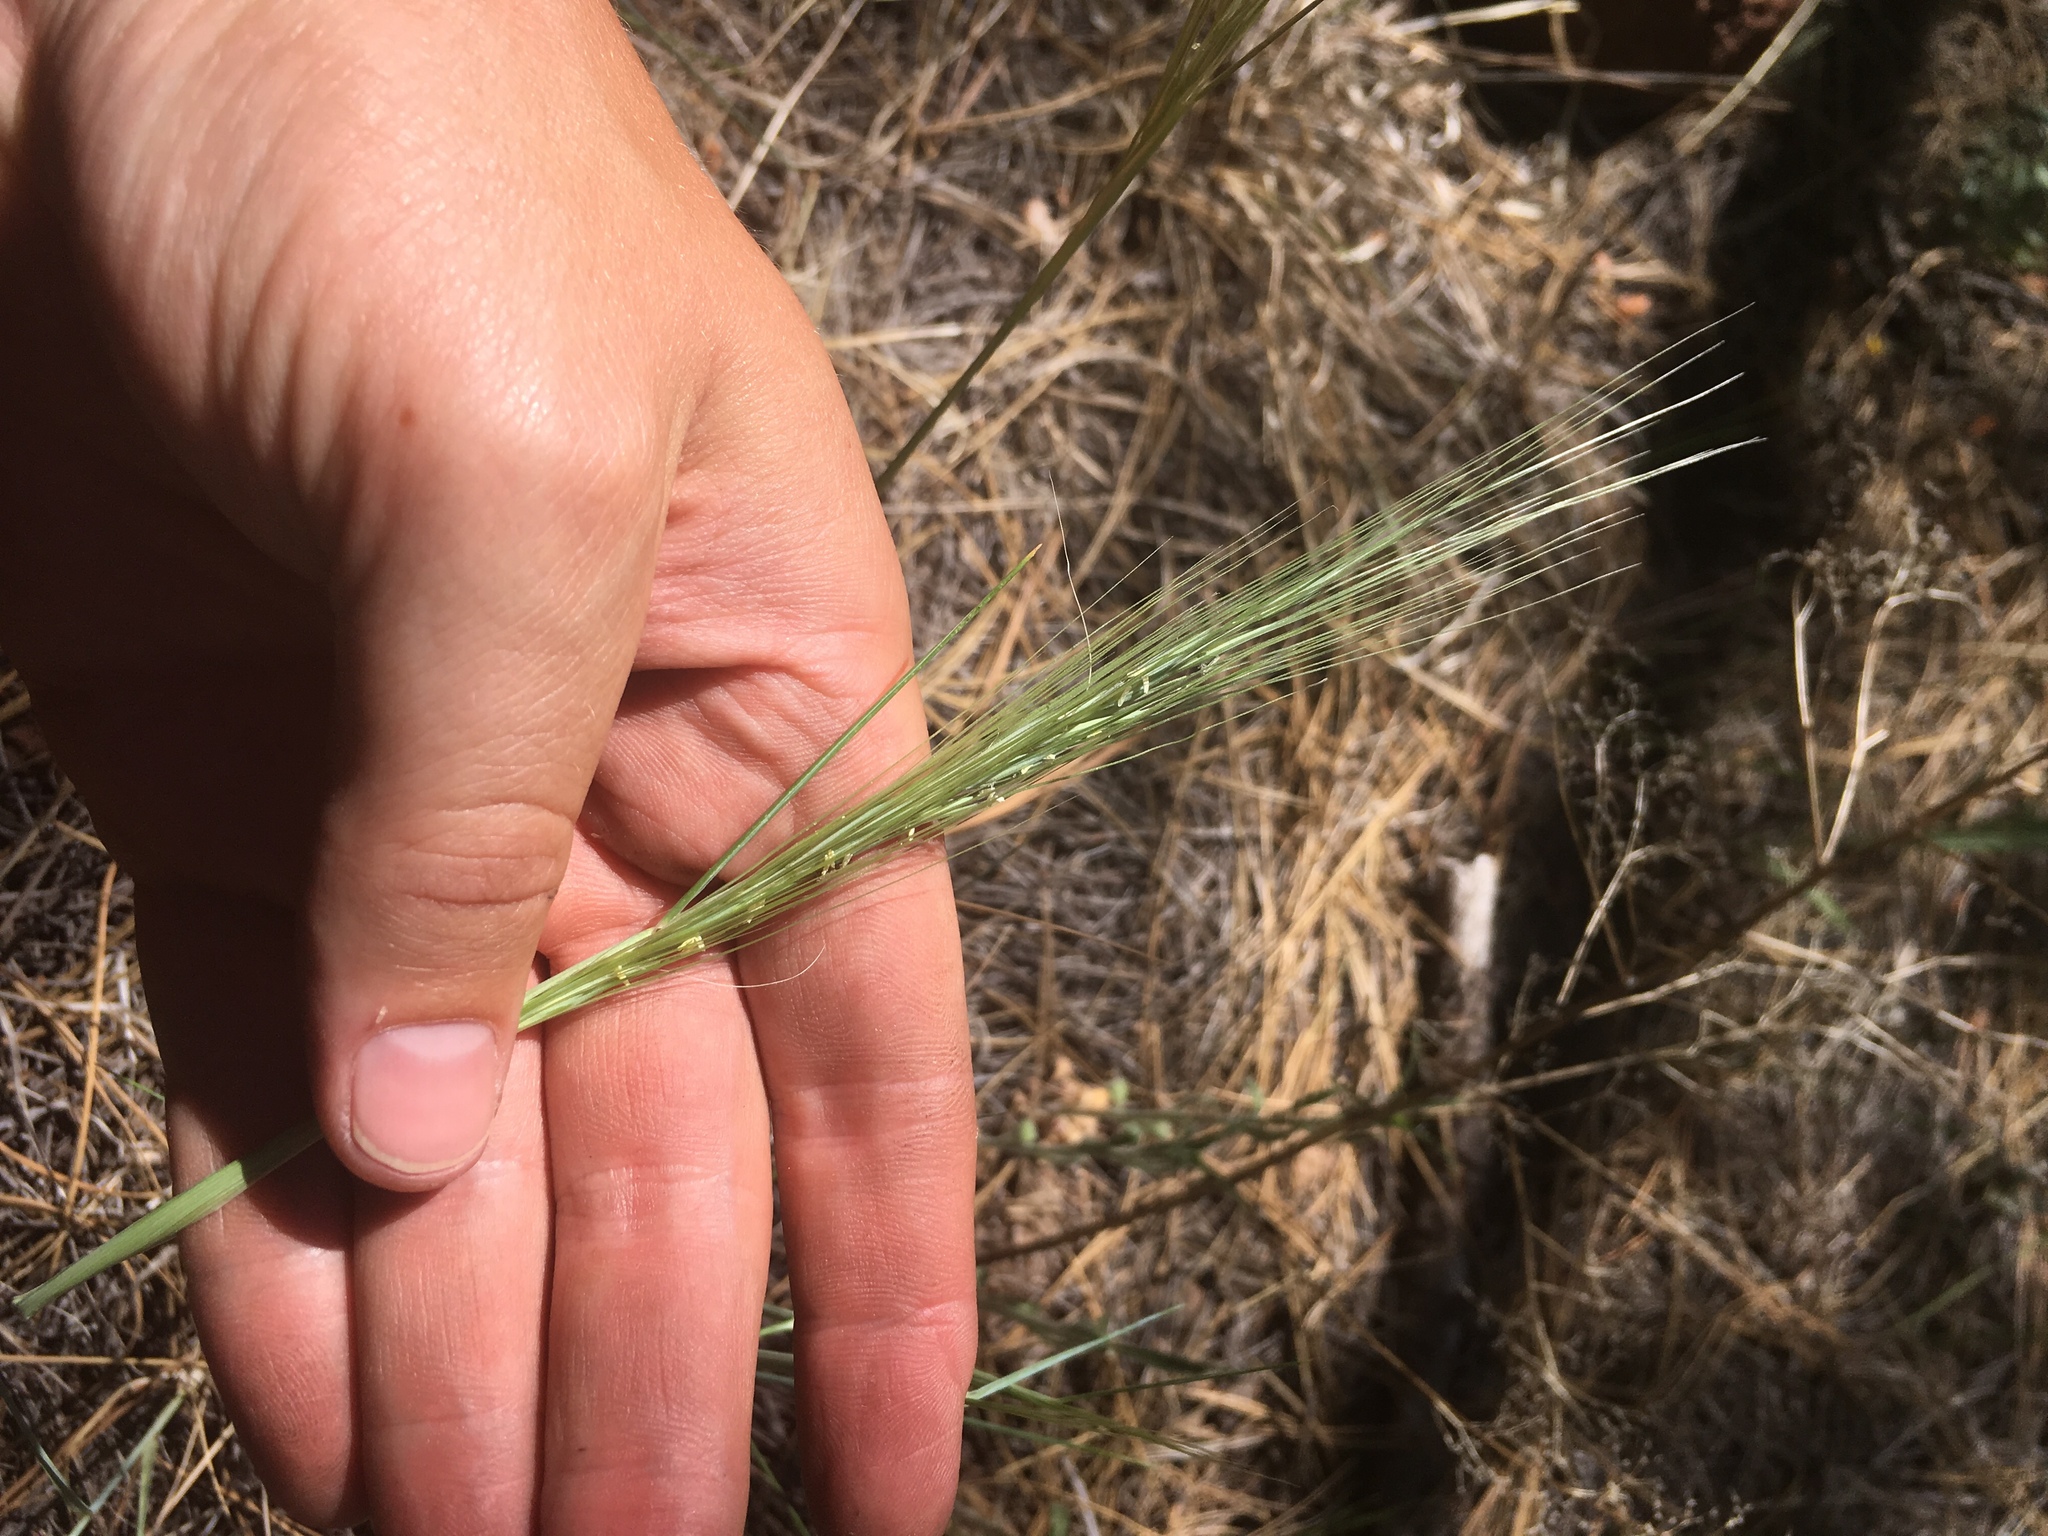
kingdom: Plantae
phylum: Tracheophyta
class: Liliopsida
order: Poales
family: Poaceae
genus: Elymus
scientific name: Elymus elymoides
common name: Bottlebrush squirreltail
